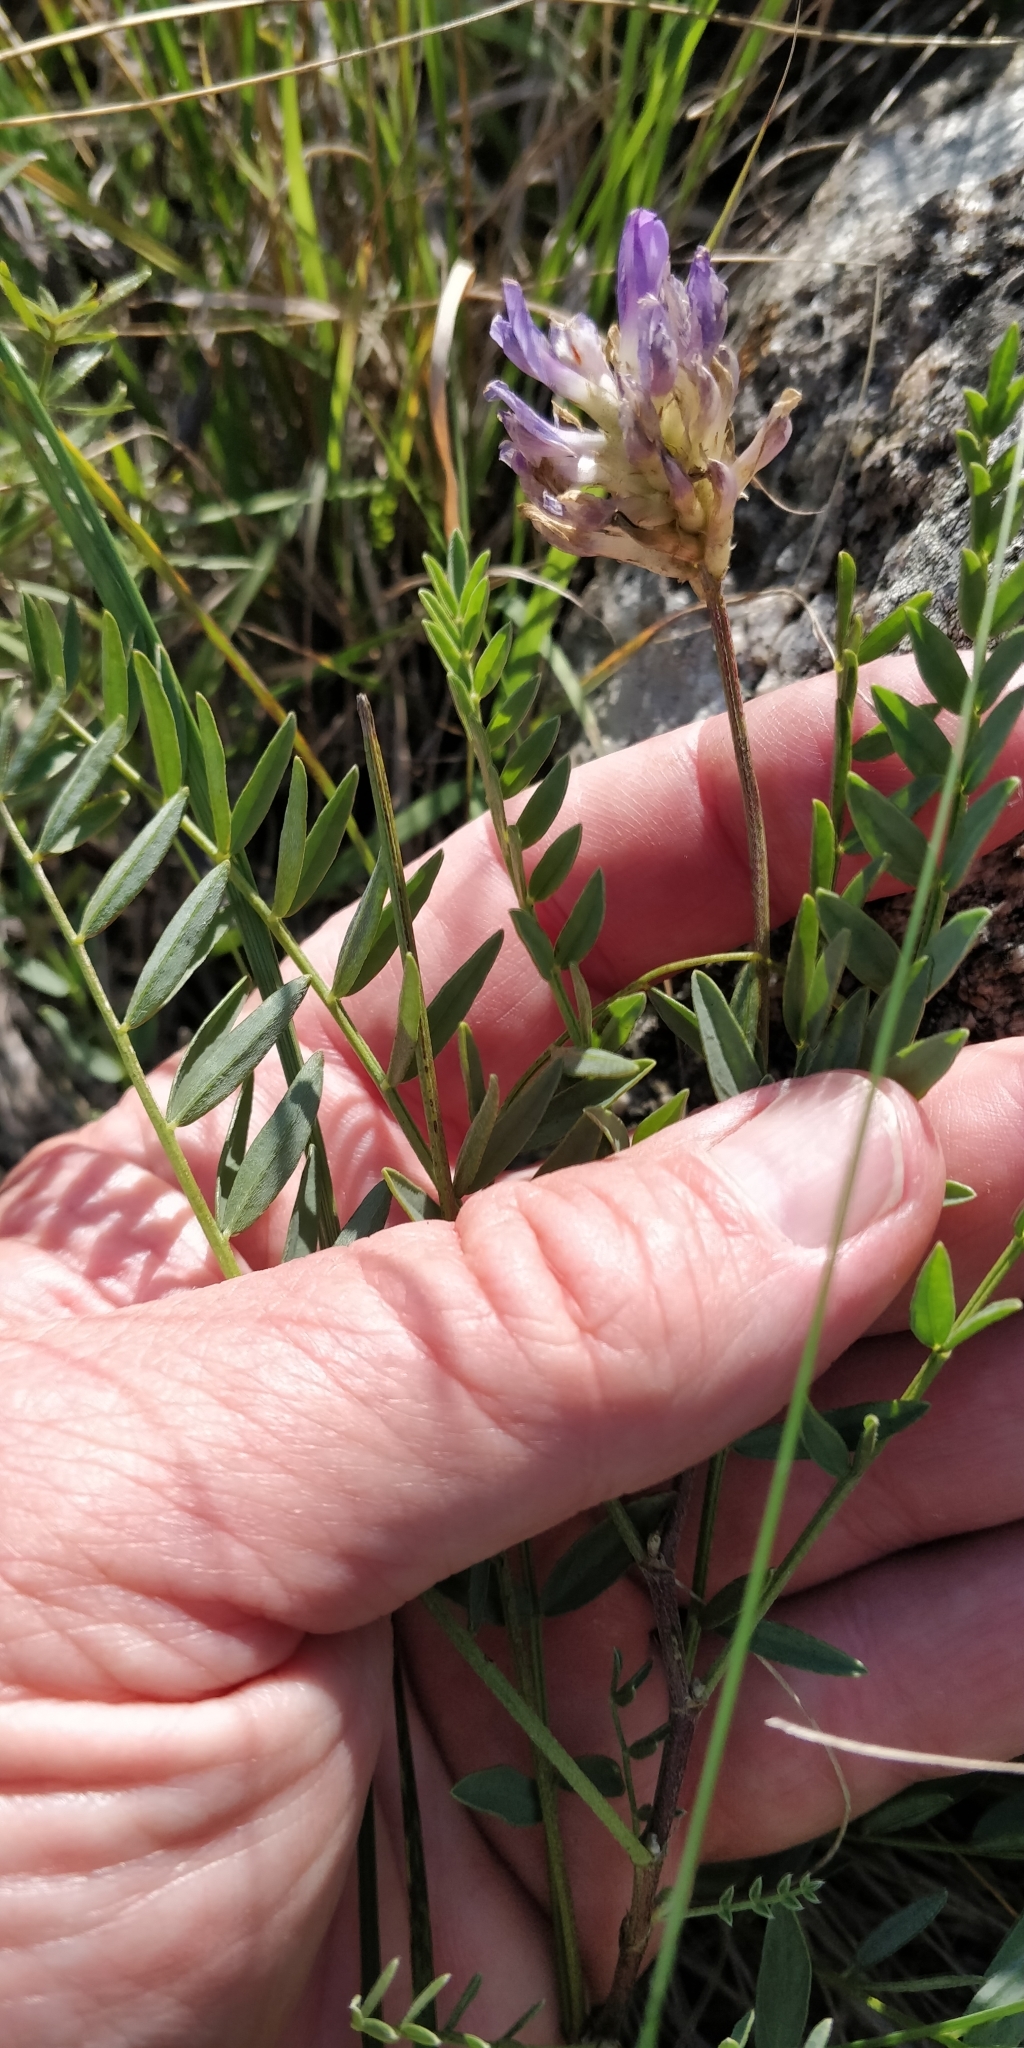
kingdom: Plantae
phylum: Tracheophyta
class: Magnoliopsida
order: Fabales
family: Fabaceae
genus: Astragalus
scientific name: Astragalus laxmannii
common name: Laxmann's milk-vetch
